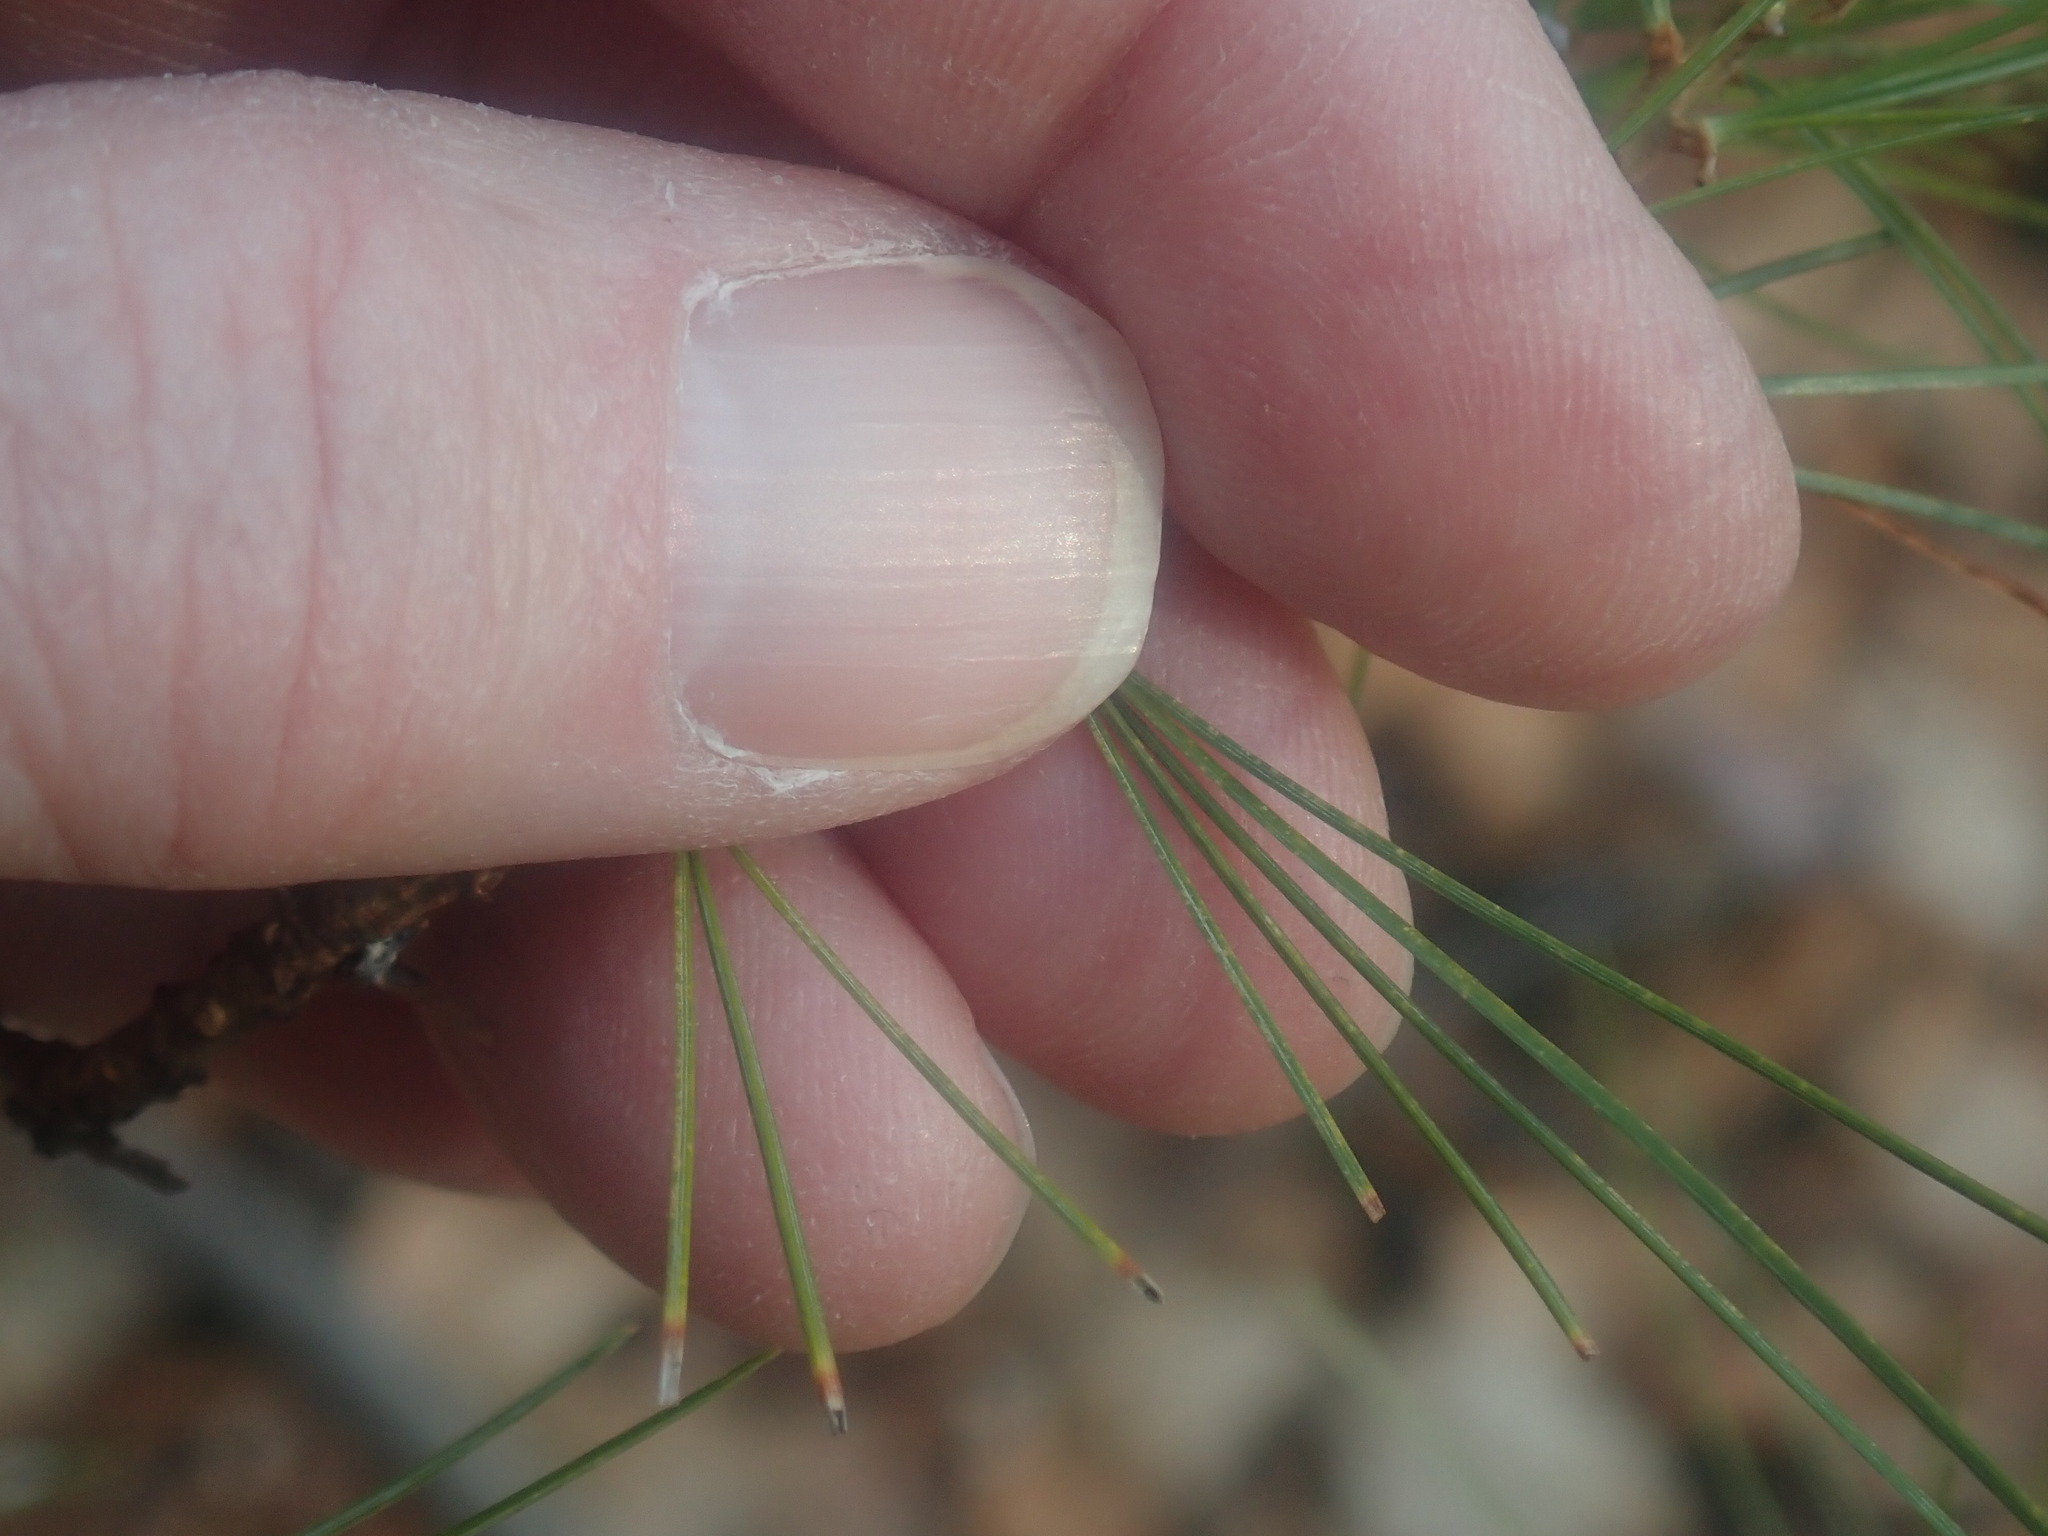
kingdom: Plantae
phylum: Tracheophyta
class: Pinopsida
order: Pinales
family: Pinaceae
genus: Pinus
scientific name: Pinus strobus
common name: Weymouth pine
